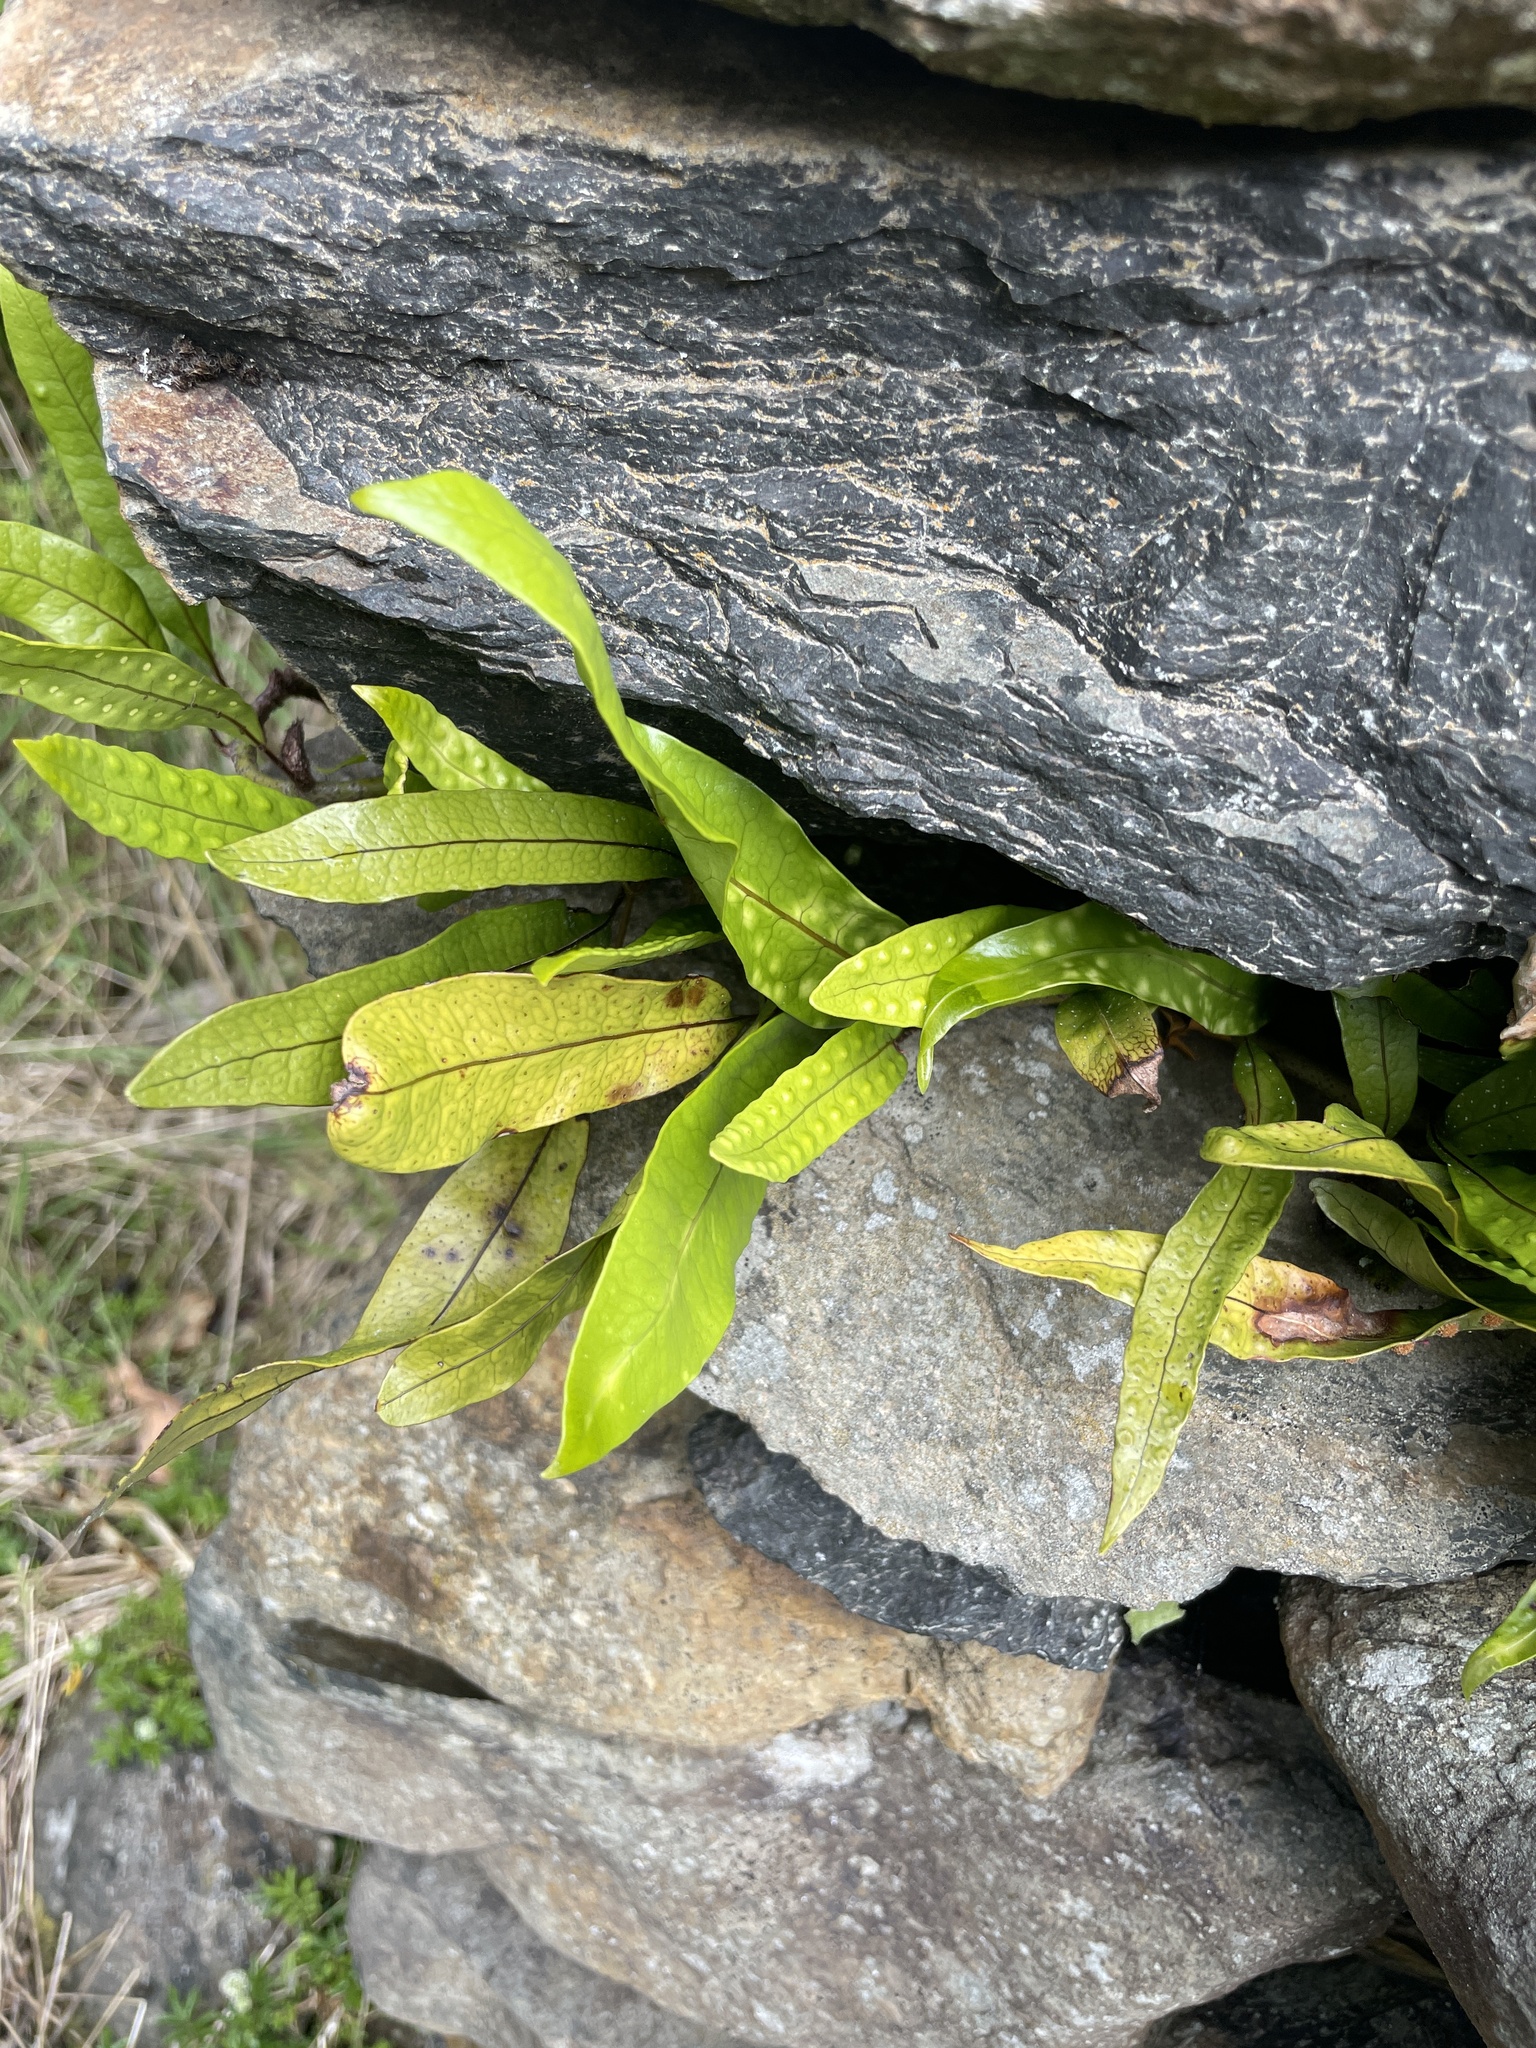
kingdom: Plantae
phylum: Tracheophyta
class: Polypodiopsida
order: Polypodiales
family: Polypodiaceae
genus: Lecanopteris
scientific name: Lecanopteris pustulata
